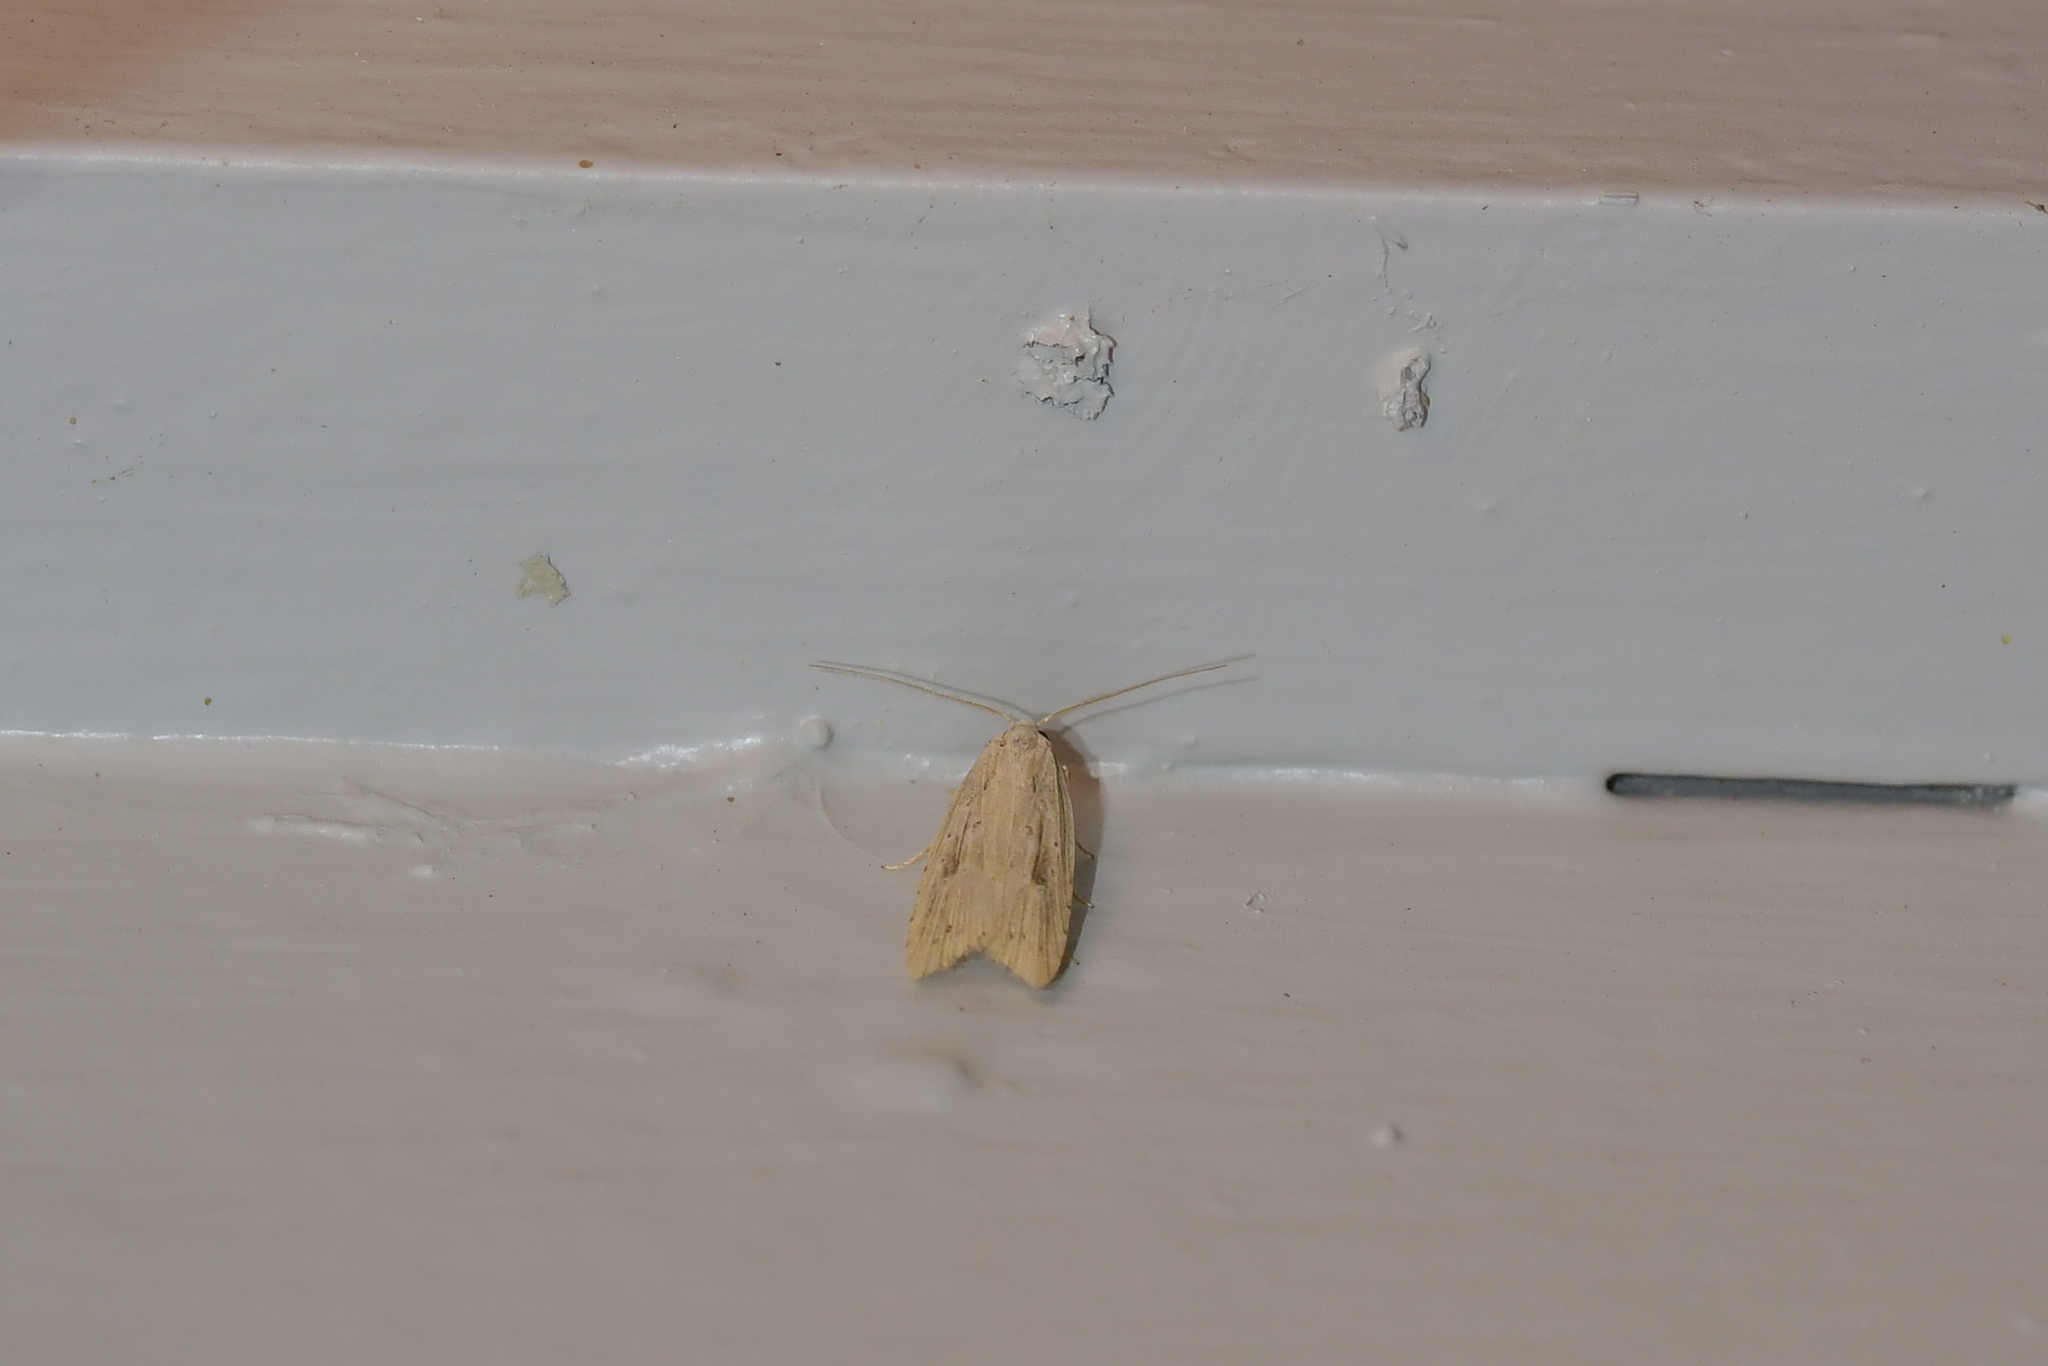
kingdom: Animalia
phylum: Arthropoda
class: Insecta
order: Lepidoptera
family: Carposinidae
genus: Carposina
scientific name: Carposina Heterocrossa exochana
